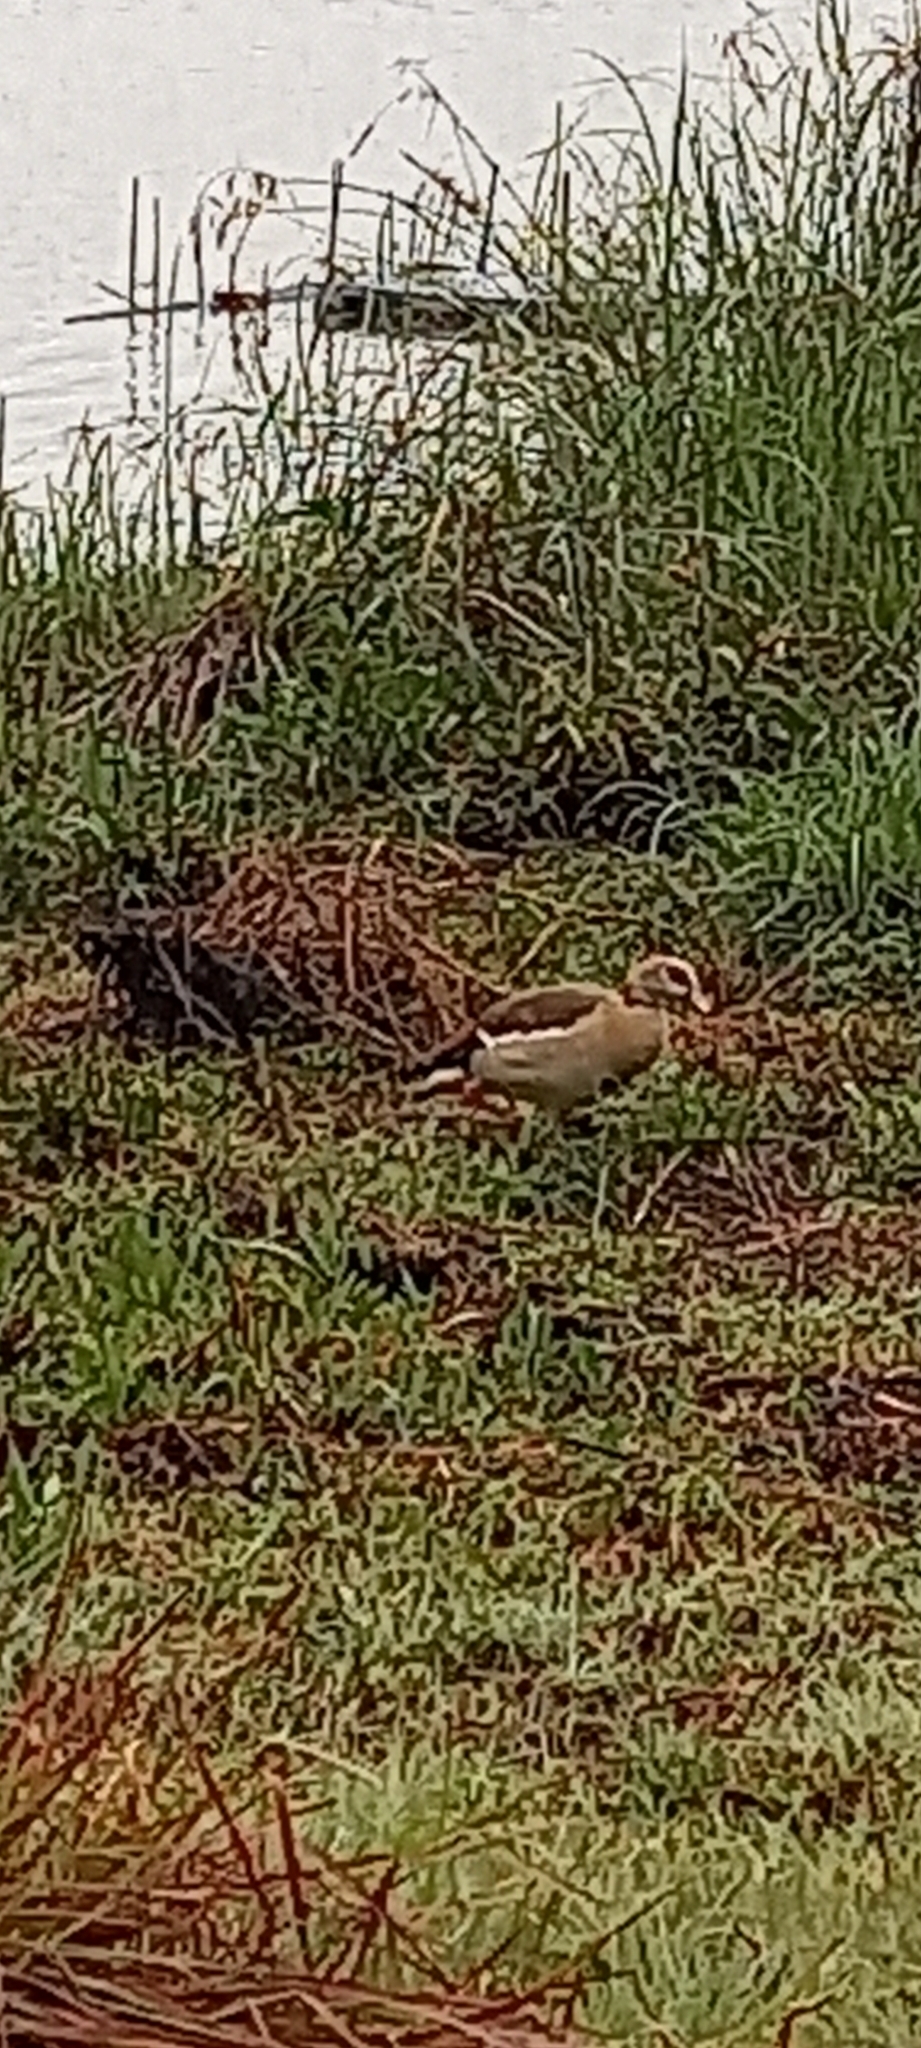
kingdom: Animalia
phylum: Chordata
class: Aves
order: Anseriformes
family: Anatidae
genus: Alopochen
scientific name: Alopochen aegyptiaca
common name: Egyptian goose
